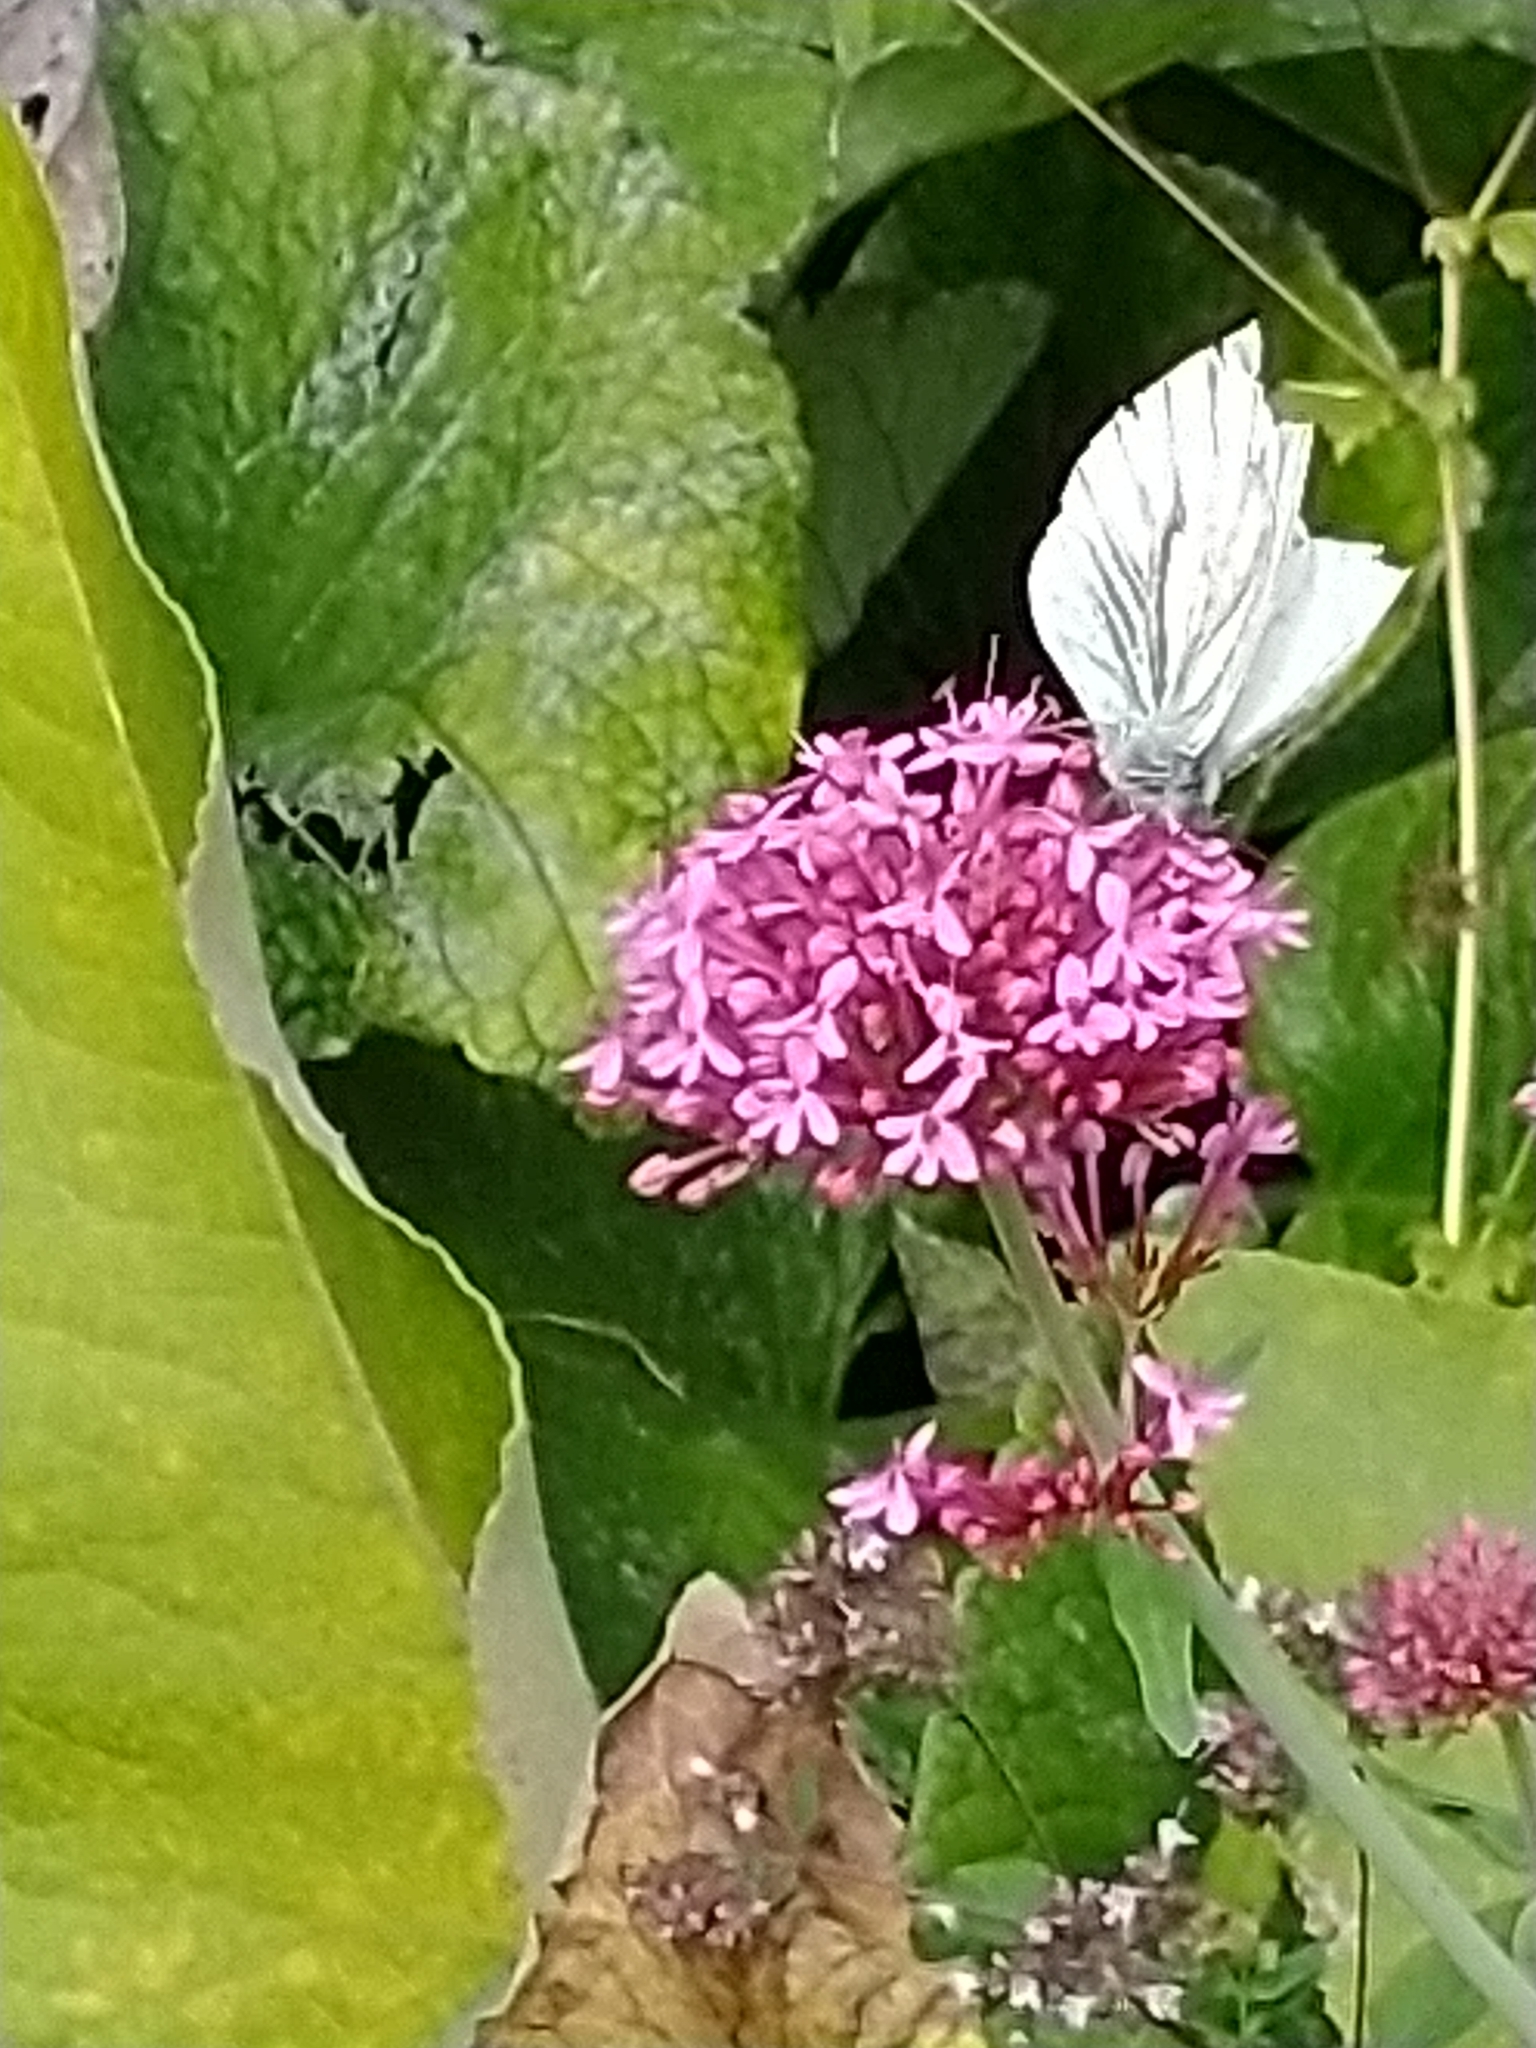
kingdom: Animalia
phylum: Arthropoda
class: Insecta
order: Lepidoptera
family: Pieridae
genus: Pieris
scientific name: Pieris napi
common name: Green-veined white
